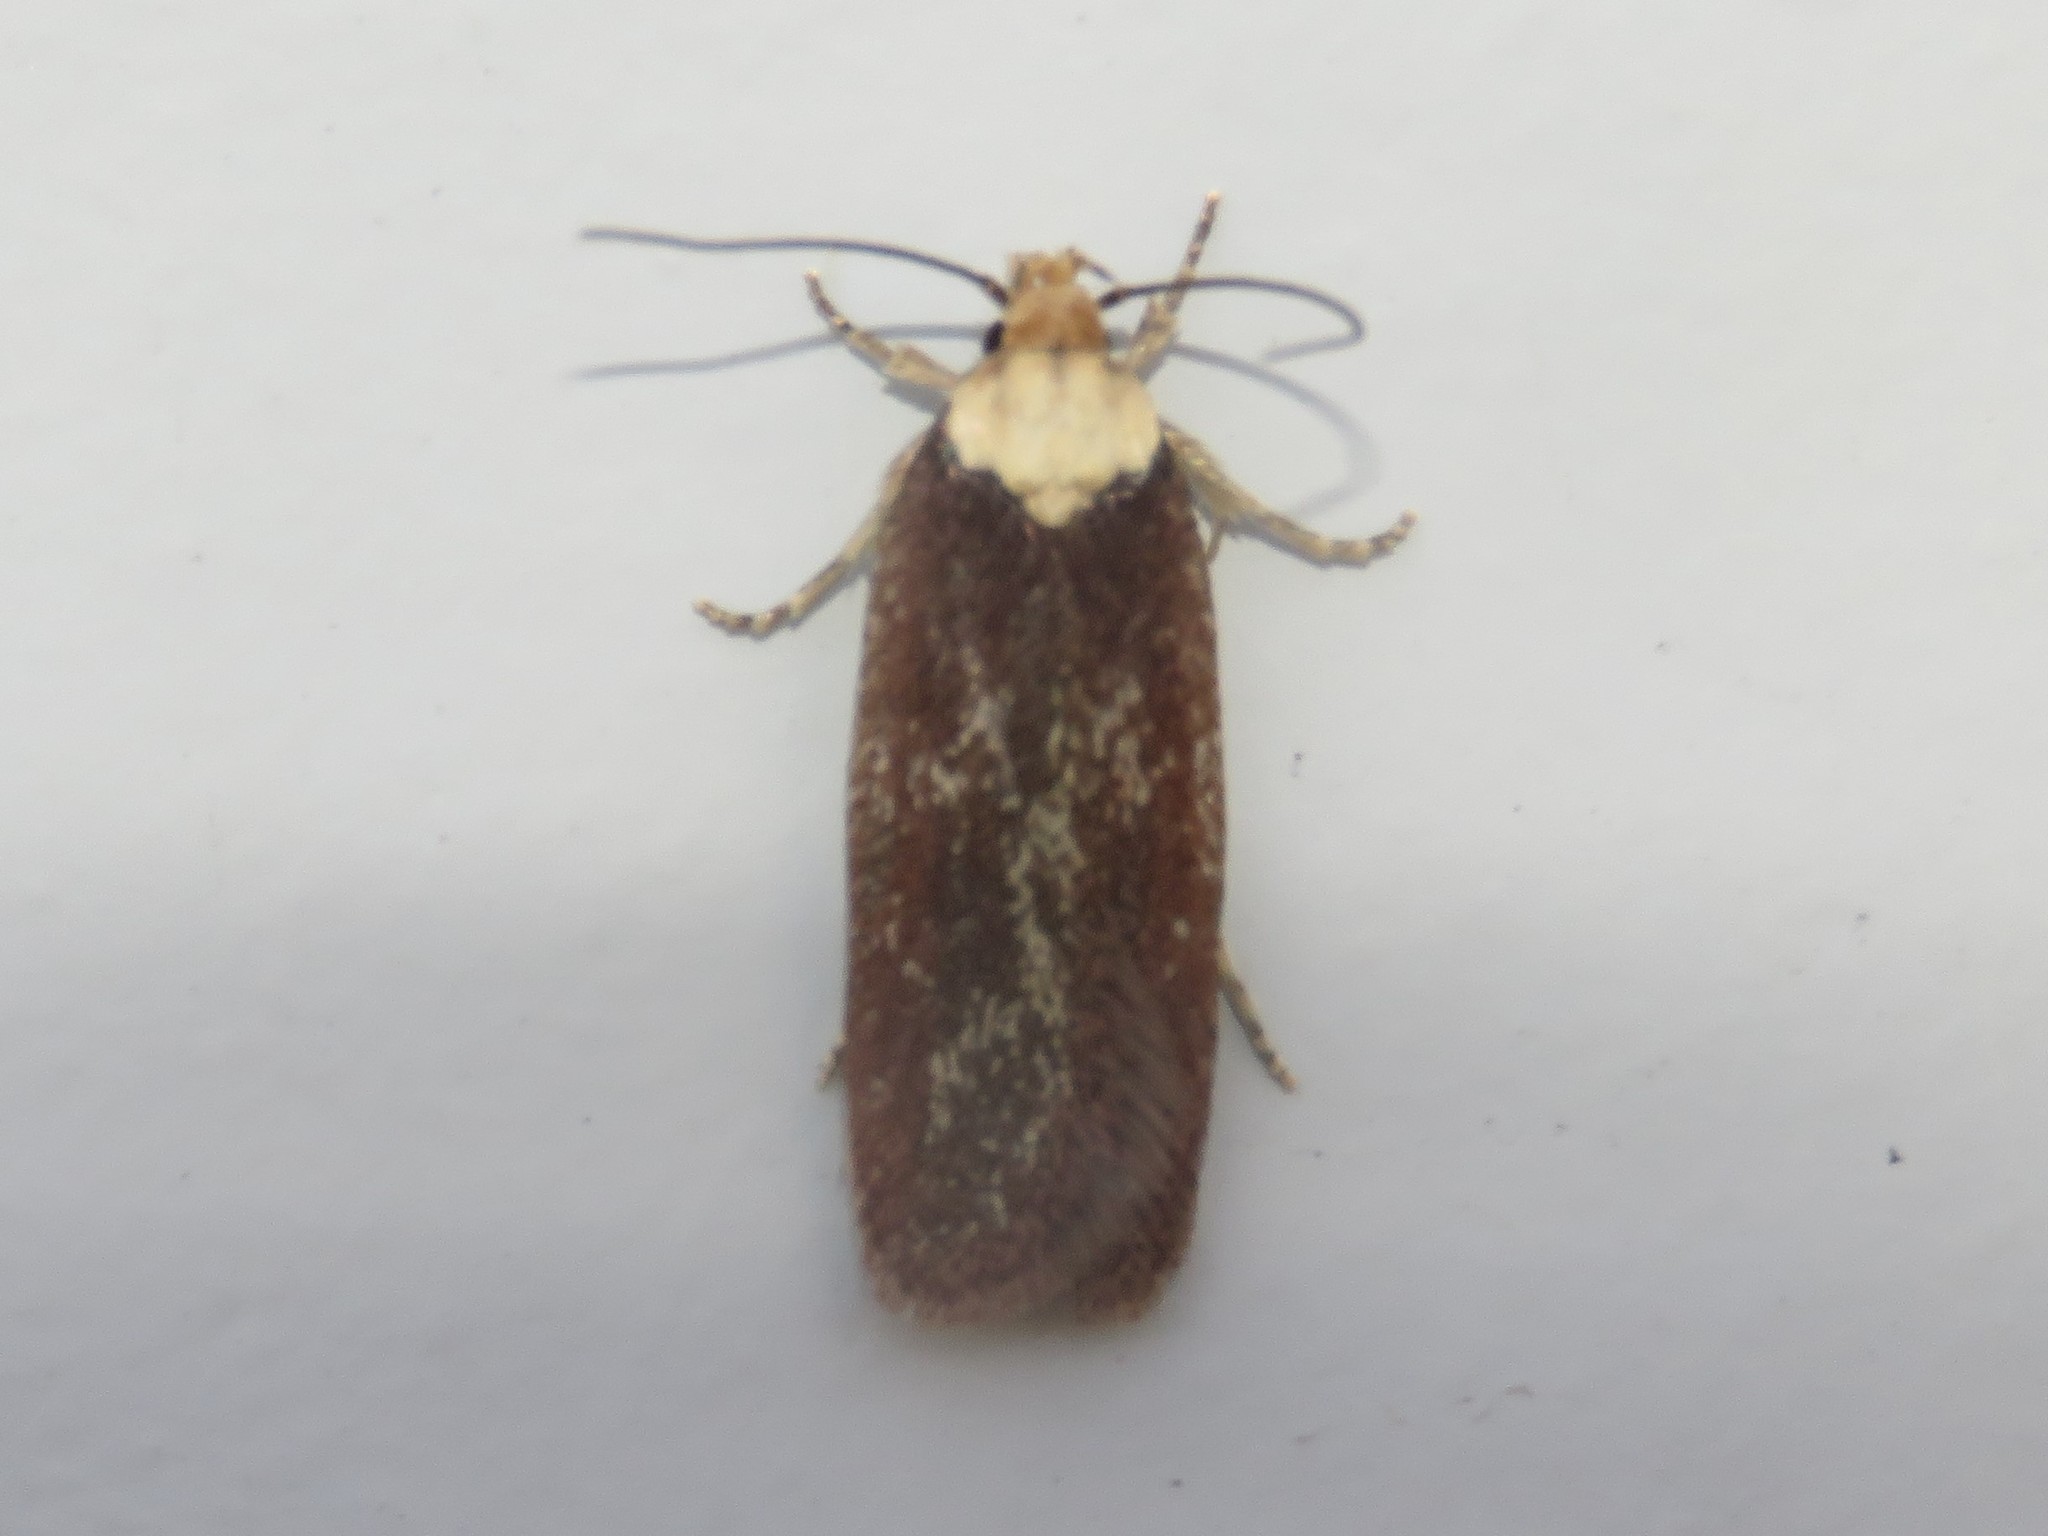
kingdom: Animalia
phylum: Arthropoda
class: Insecta
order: Lepidoptera
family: Depressariidae
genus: Depressaria
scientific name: Depressaria depressana
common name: Lost flat-body
